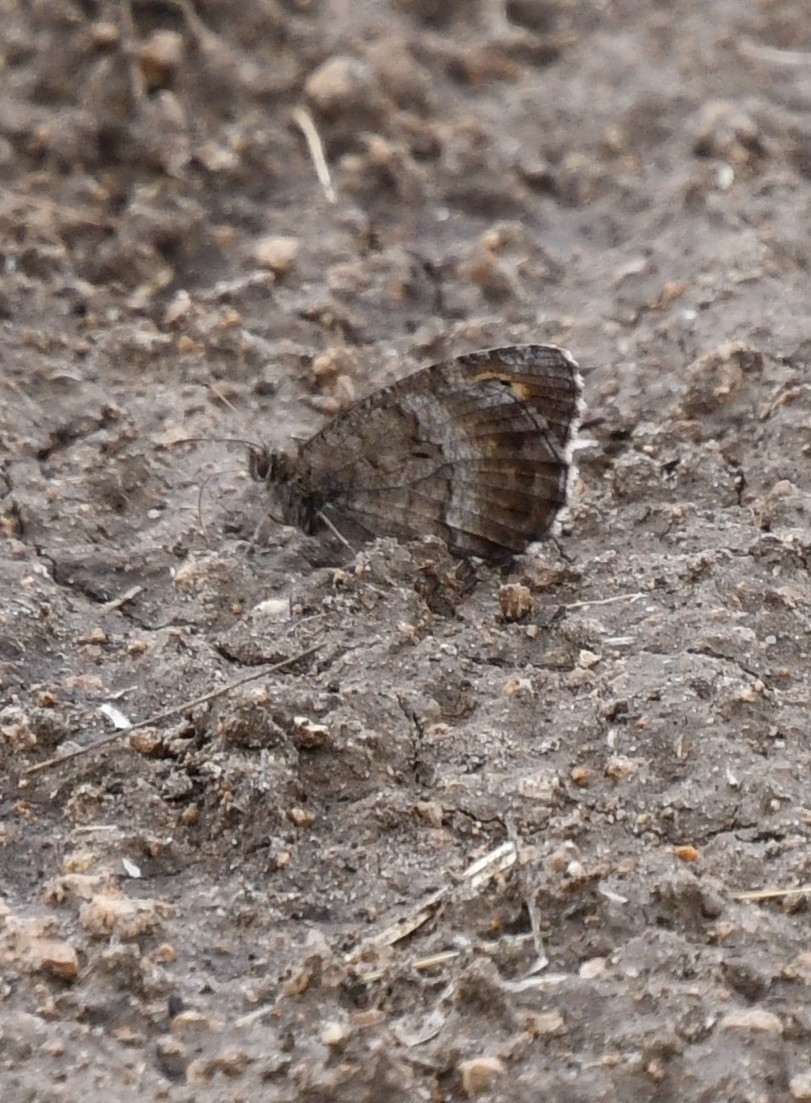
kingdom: Animalia
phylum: Arthropoda
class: Insecta
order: Lepidoptera
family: Nymphalidae
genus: Arethusana
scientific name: Arethusana arethusa
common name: False grayling
